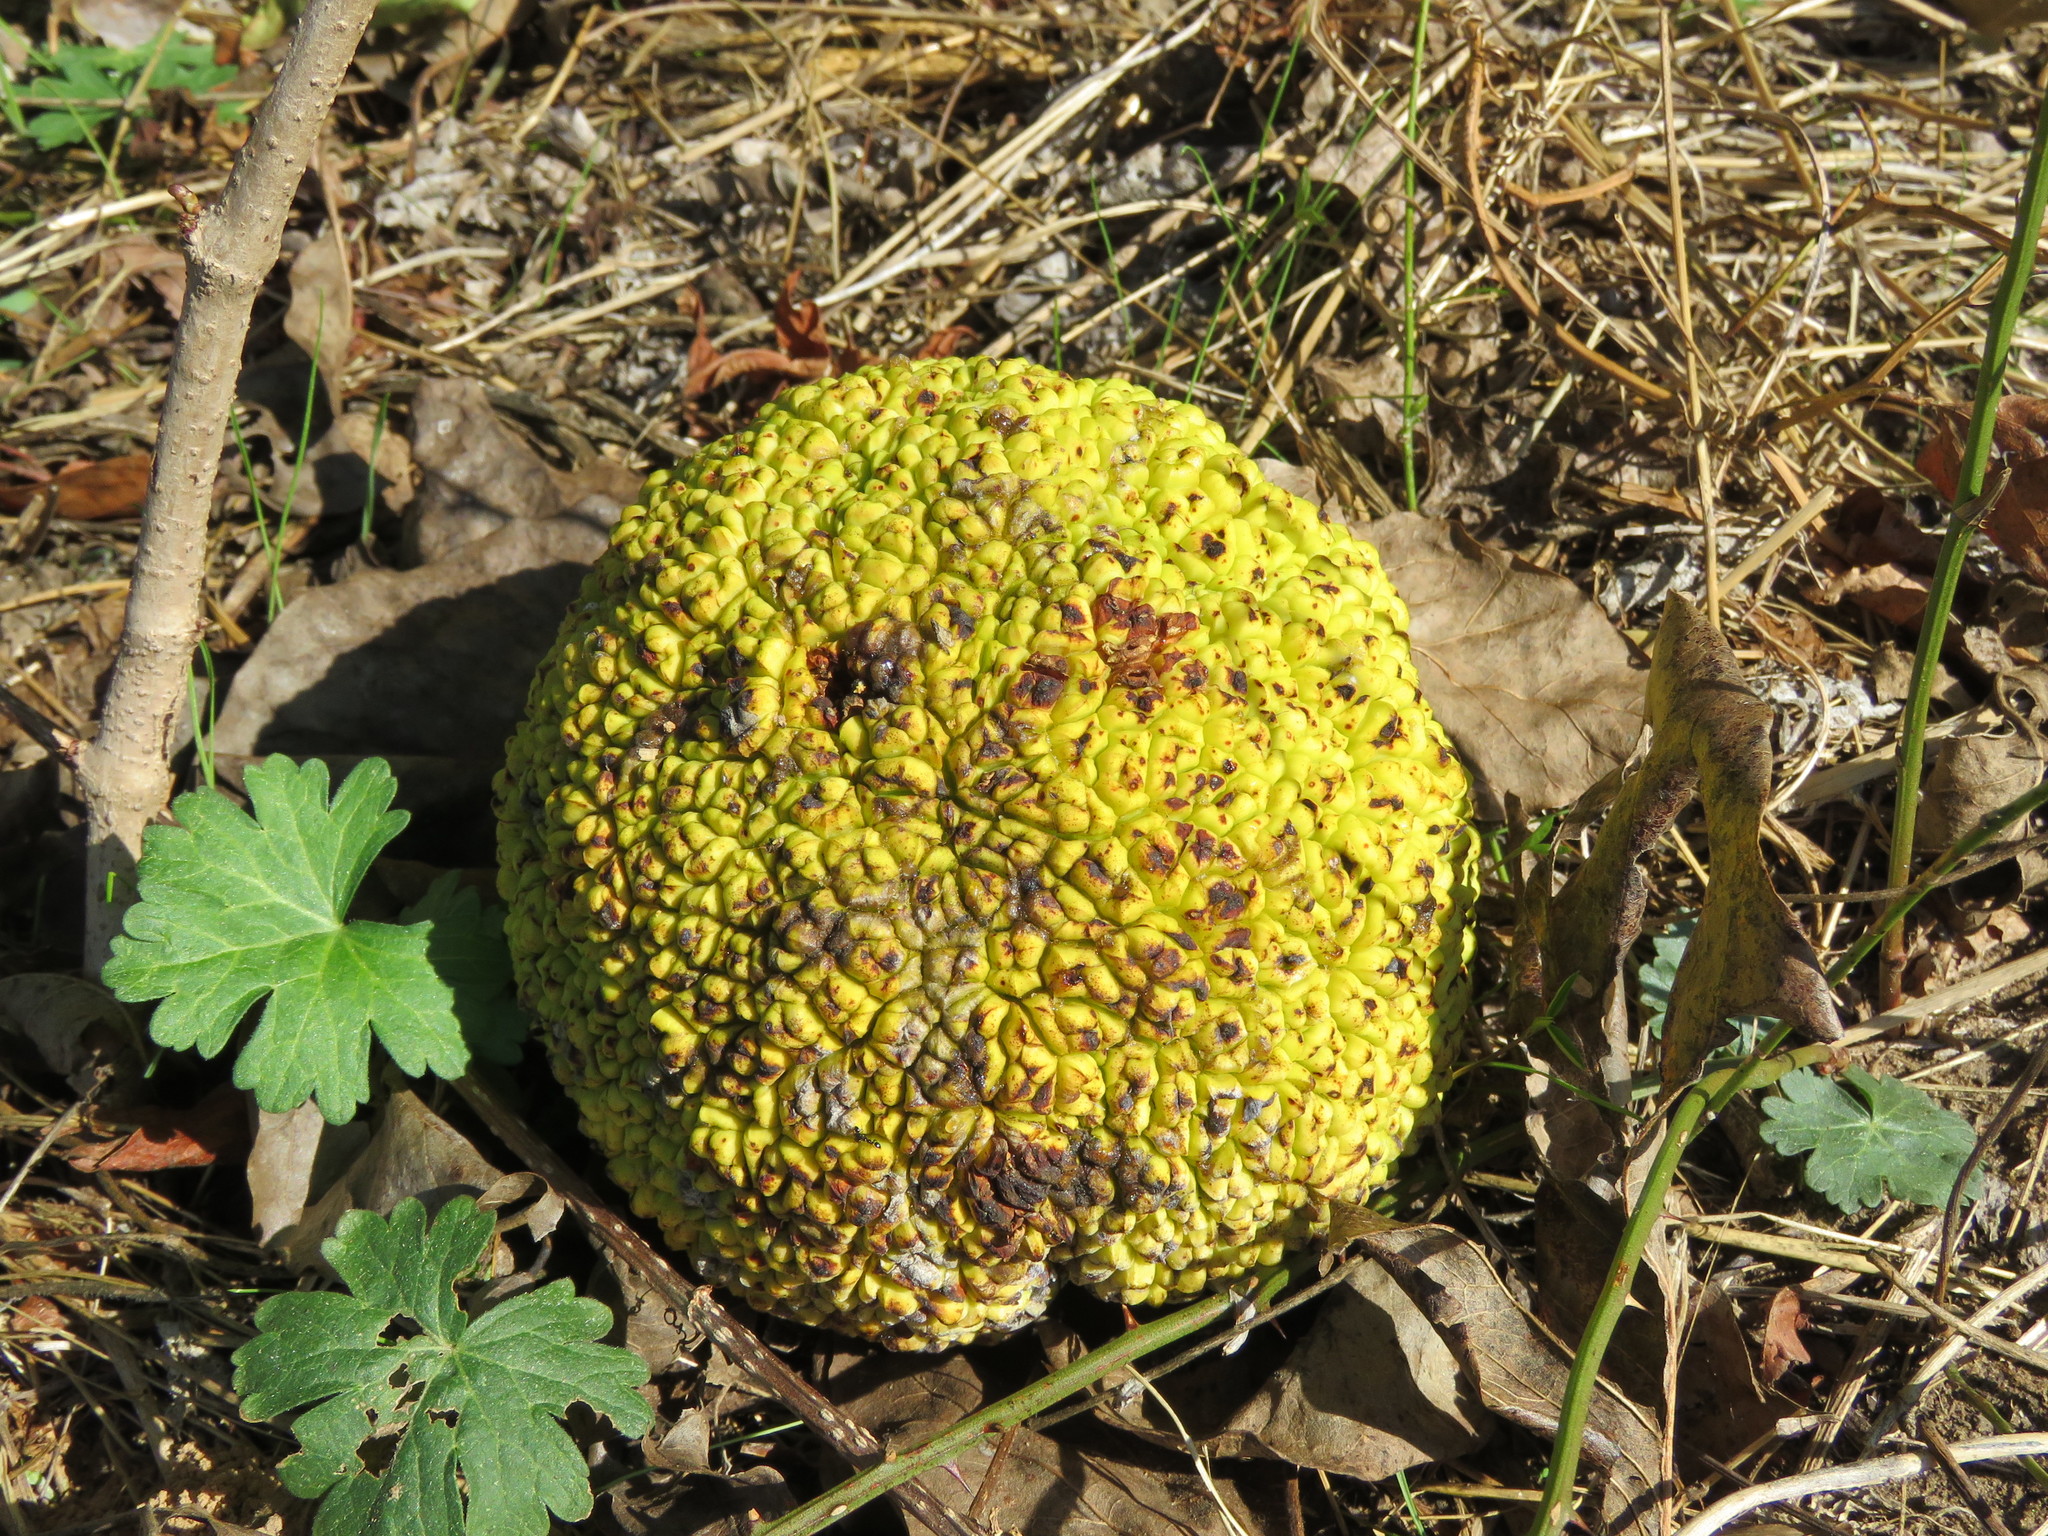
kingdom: Plantae
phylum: Tracheophyta
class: Magnoliopsida
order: Rosales
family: Moraceae
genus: Maclura
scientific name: Maclura pomifera
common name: Osage-orange
